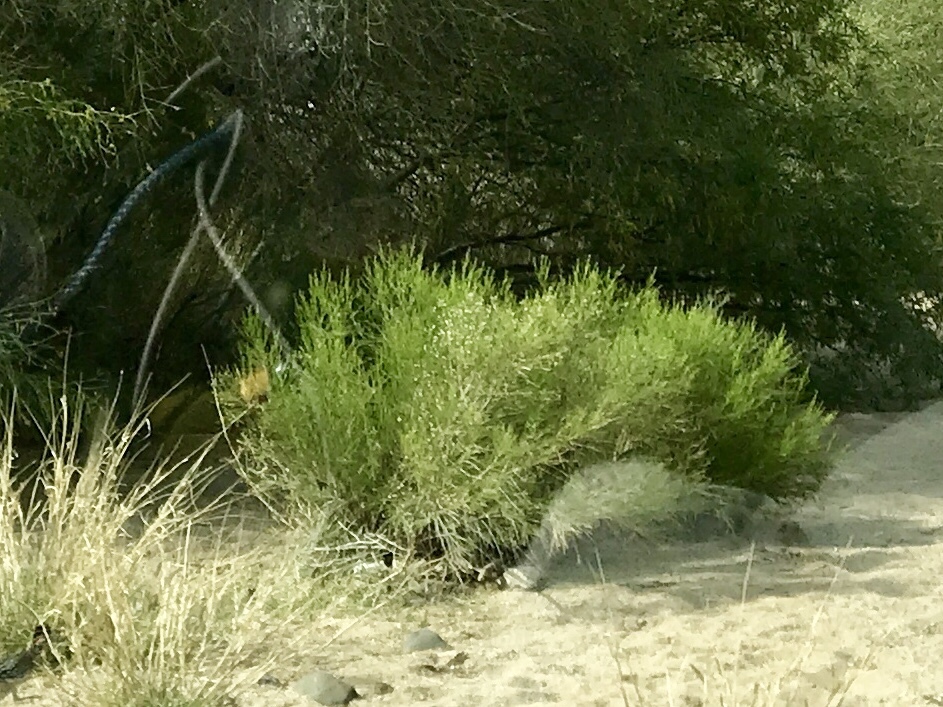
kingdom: Plantae
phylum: Tracheophyta
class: Magnoliopsida
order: Asterales
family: Asteraceae
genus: Baccharis
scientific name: Baccharis sarothroides
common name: Desert-broom
